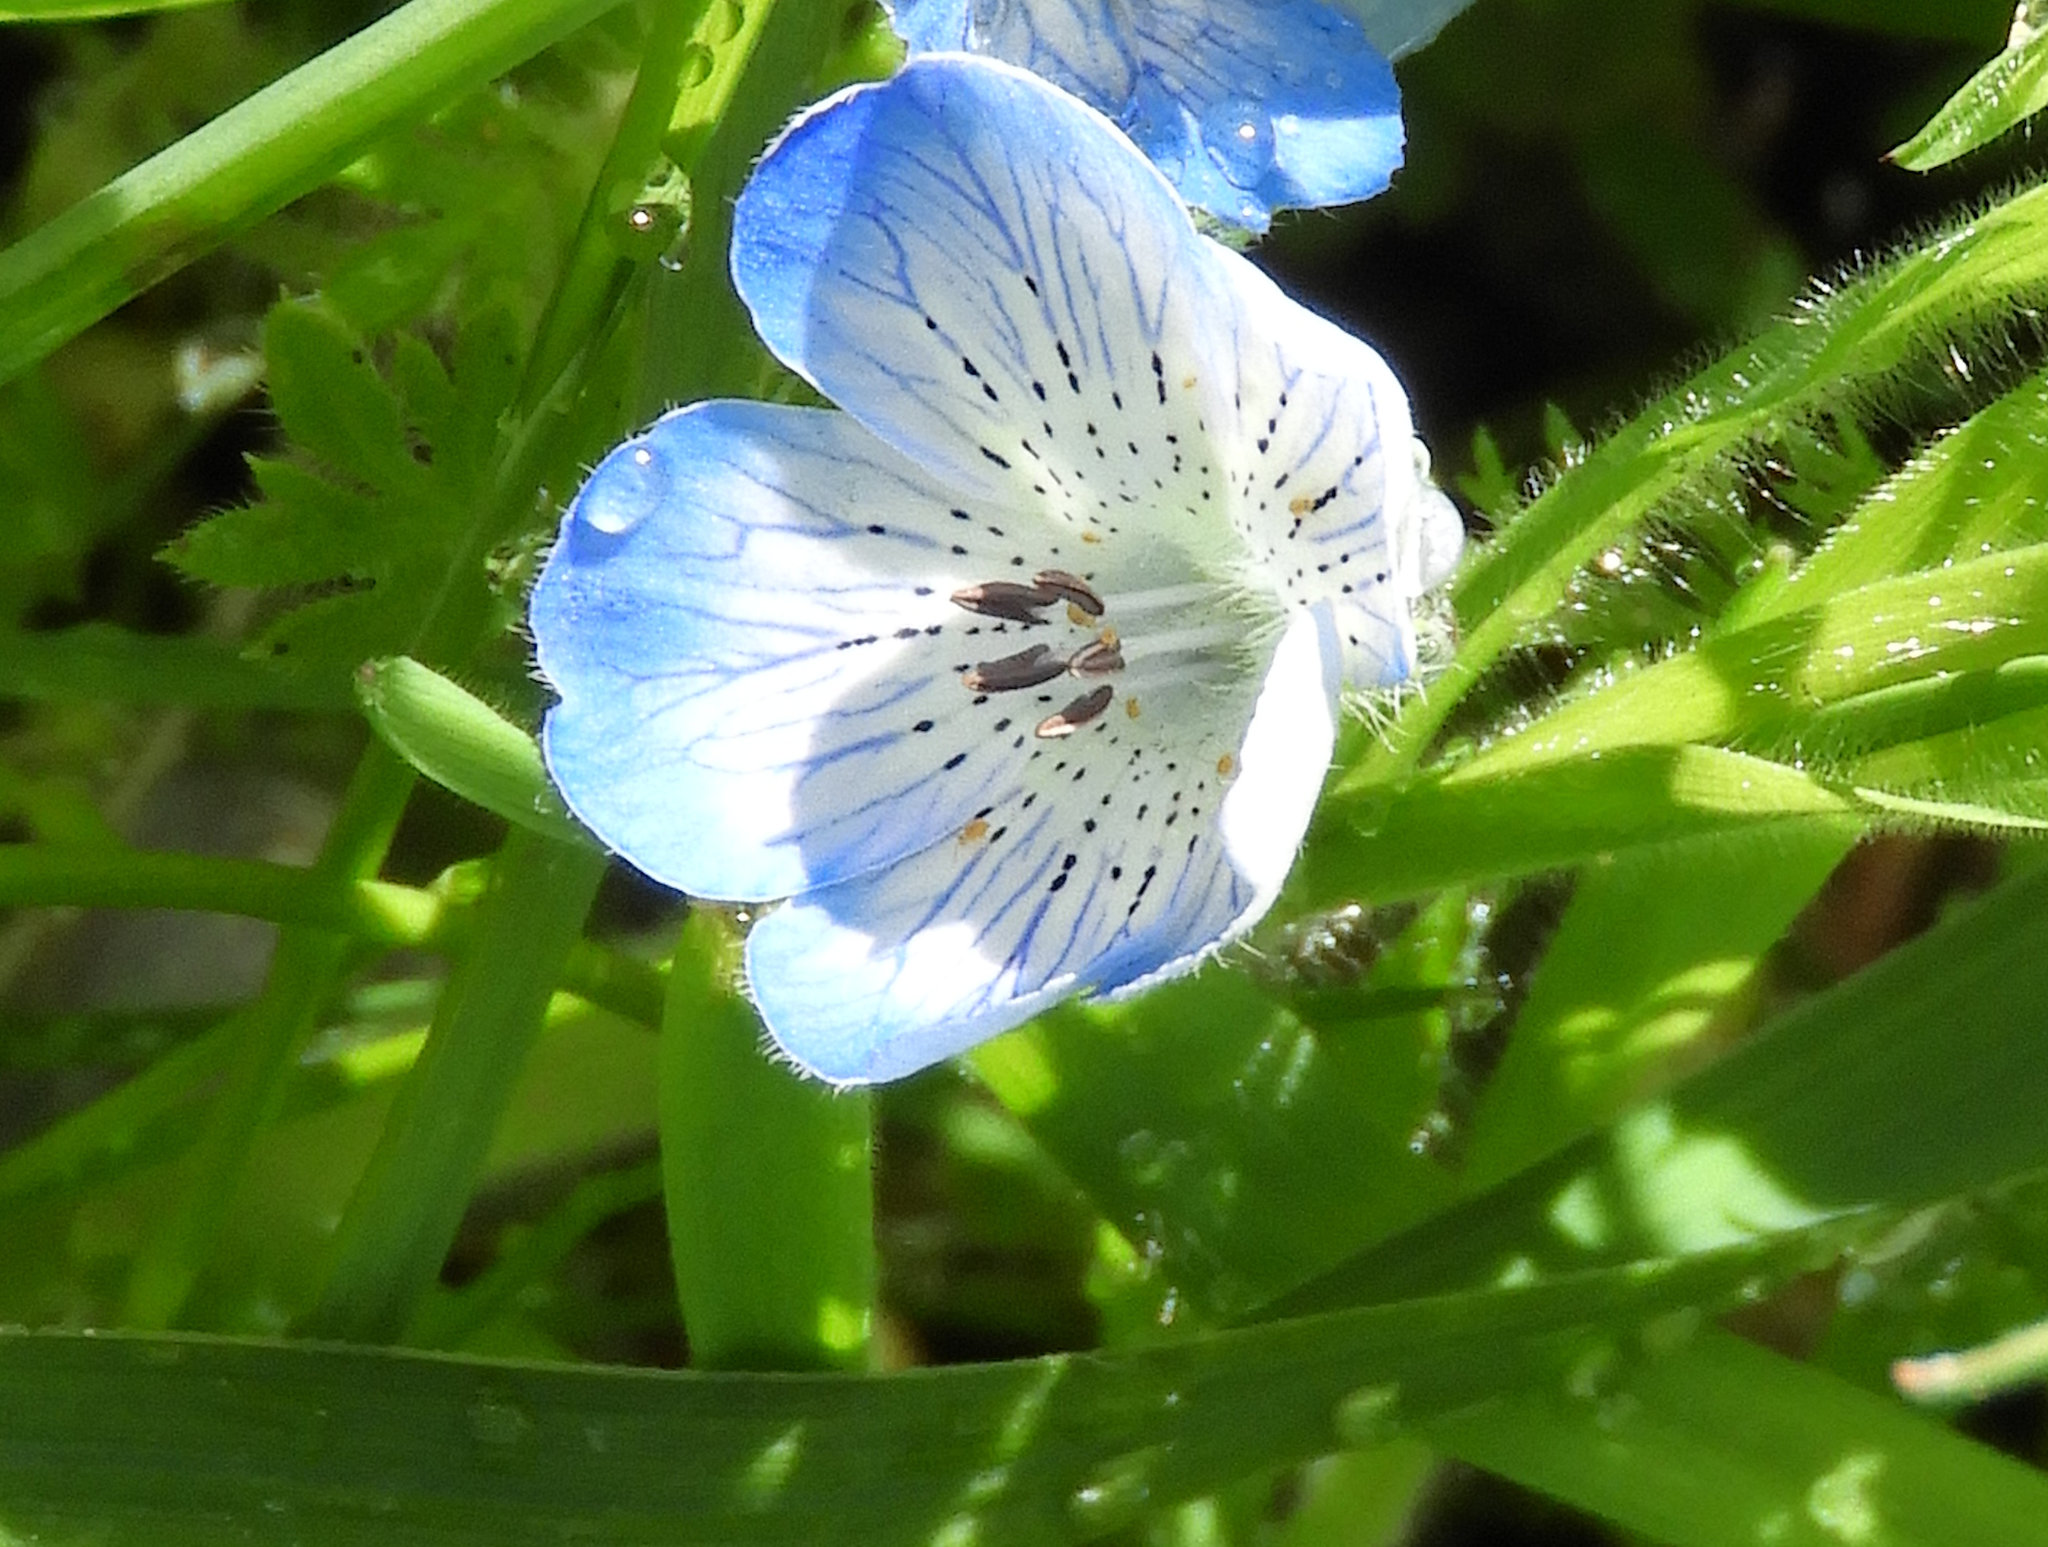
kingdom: Plantae
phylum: Tracheophyta
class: Magnoliopsida
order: Boraginales
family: Hydrophyllaceae
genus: Nemophila
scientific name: Nemophila menziesii
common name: Baby's-blue-eyes
